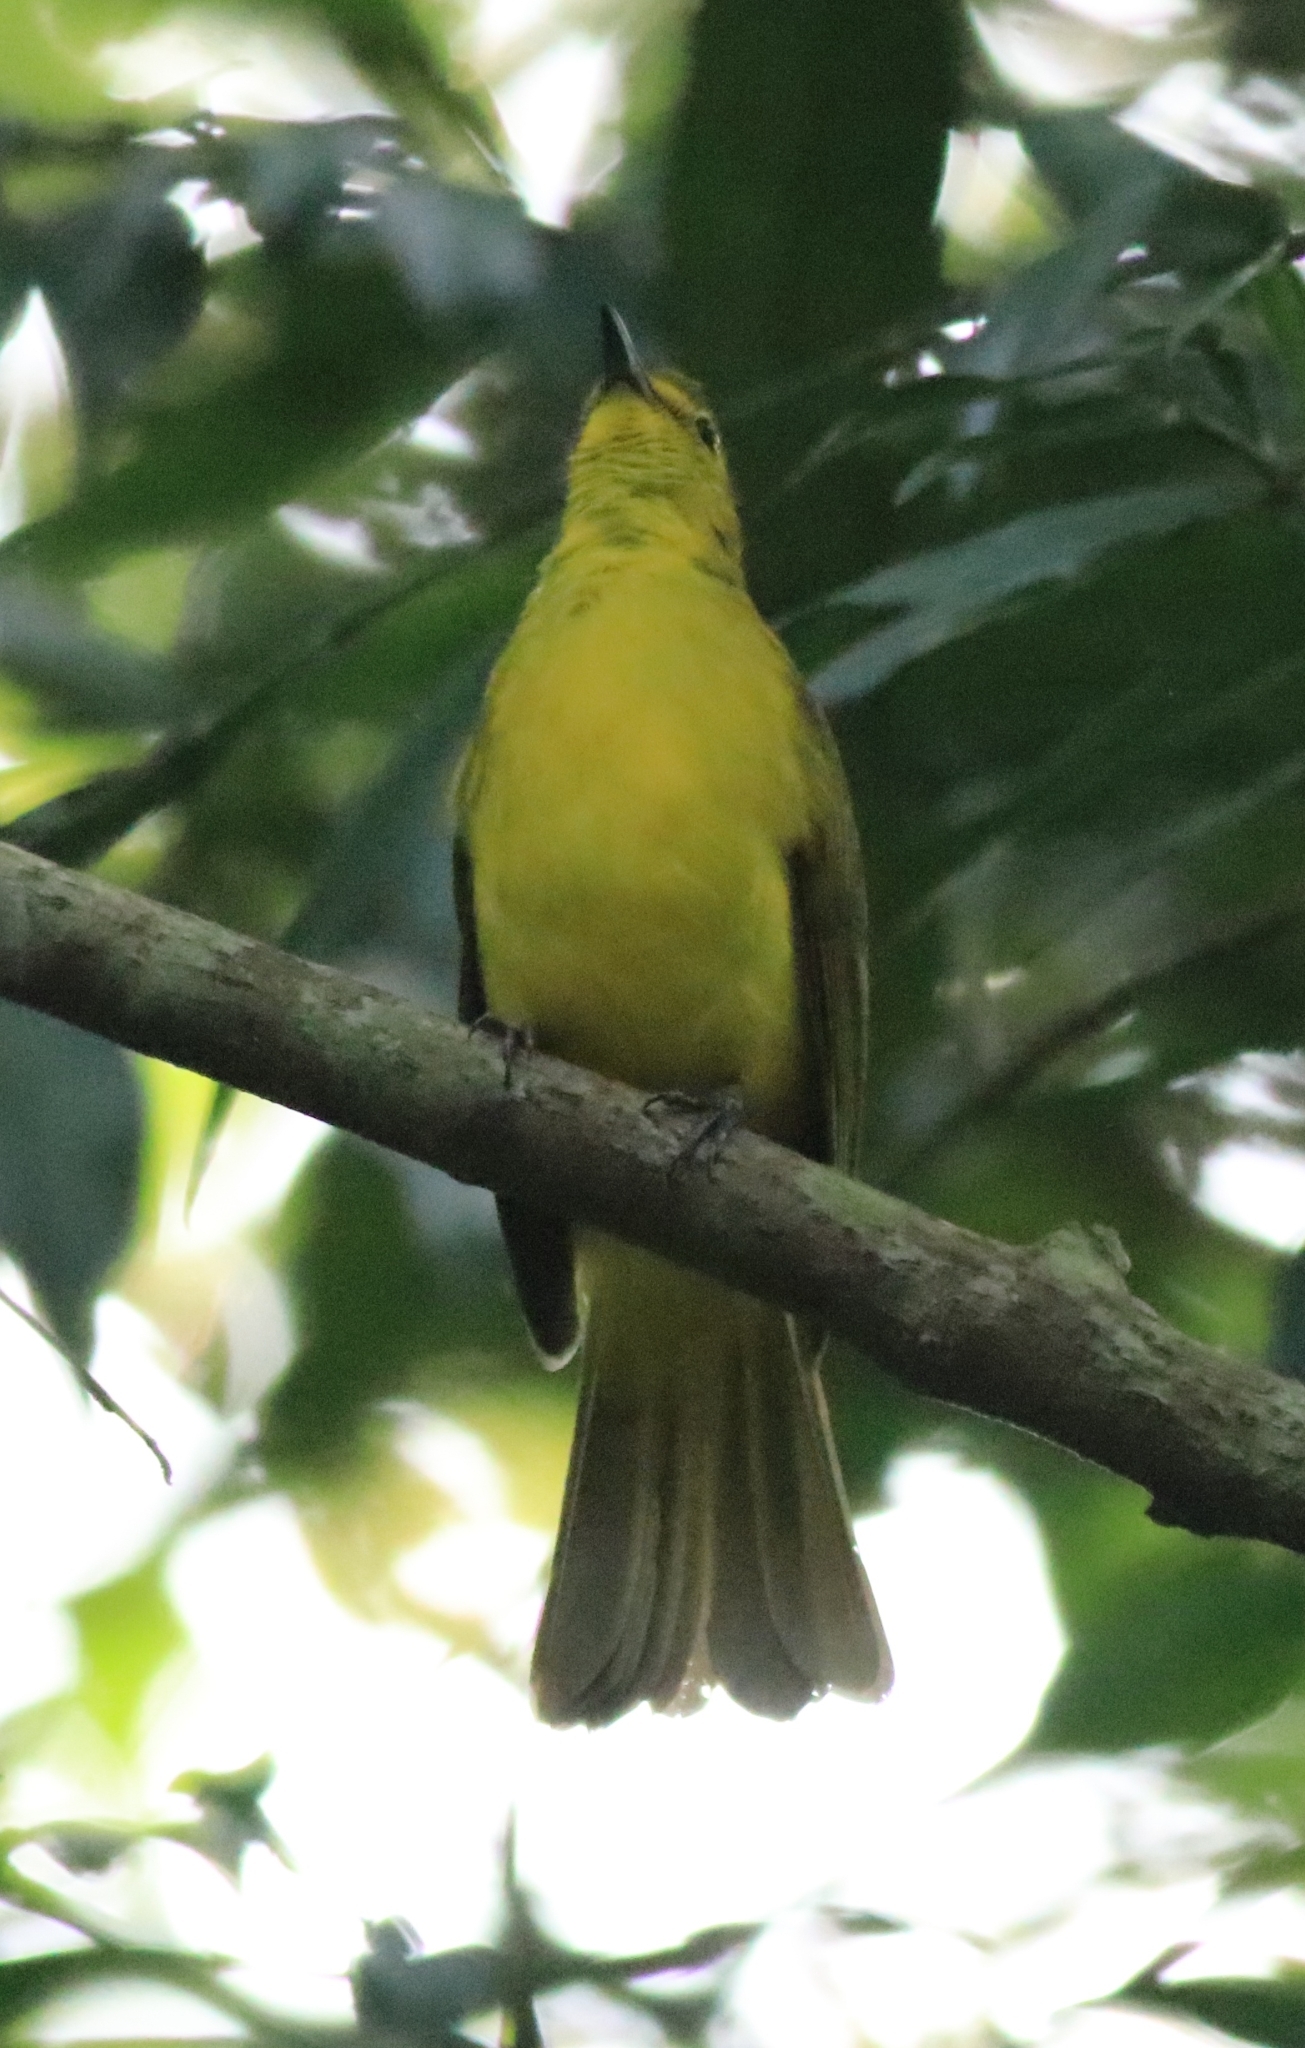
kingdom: Animalia
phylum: Chordata
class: Aves
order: Passeriformes
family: Pycnonotidae
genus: Acritillas
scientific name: Acritillas indica
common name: Yellow-browed bulbul
